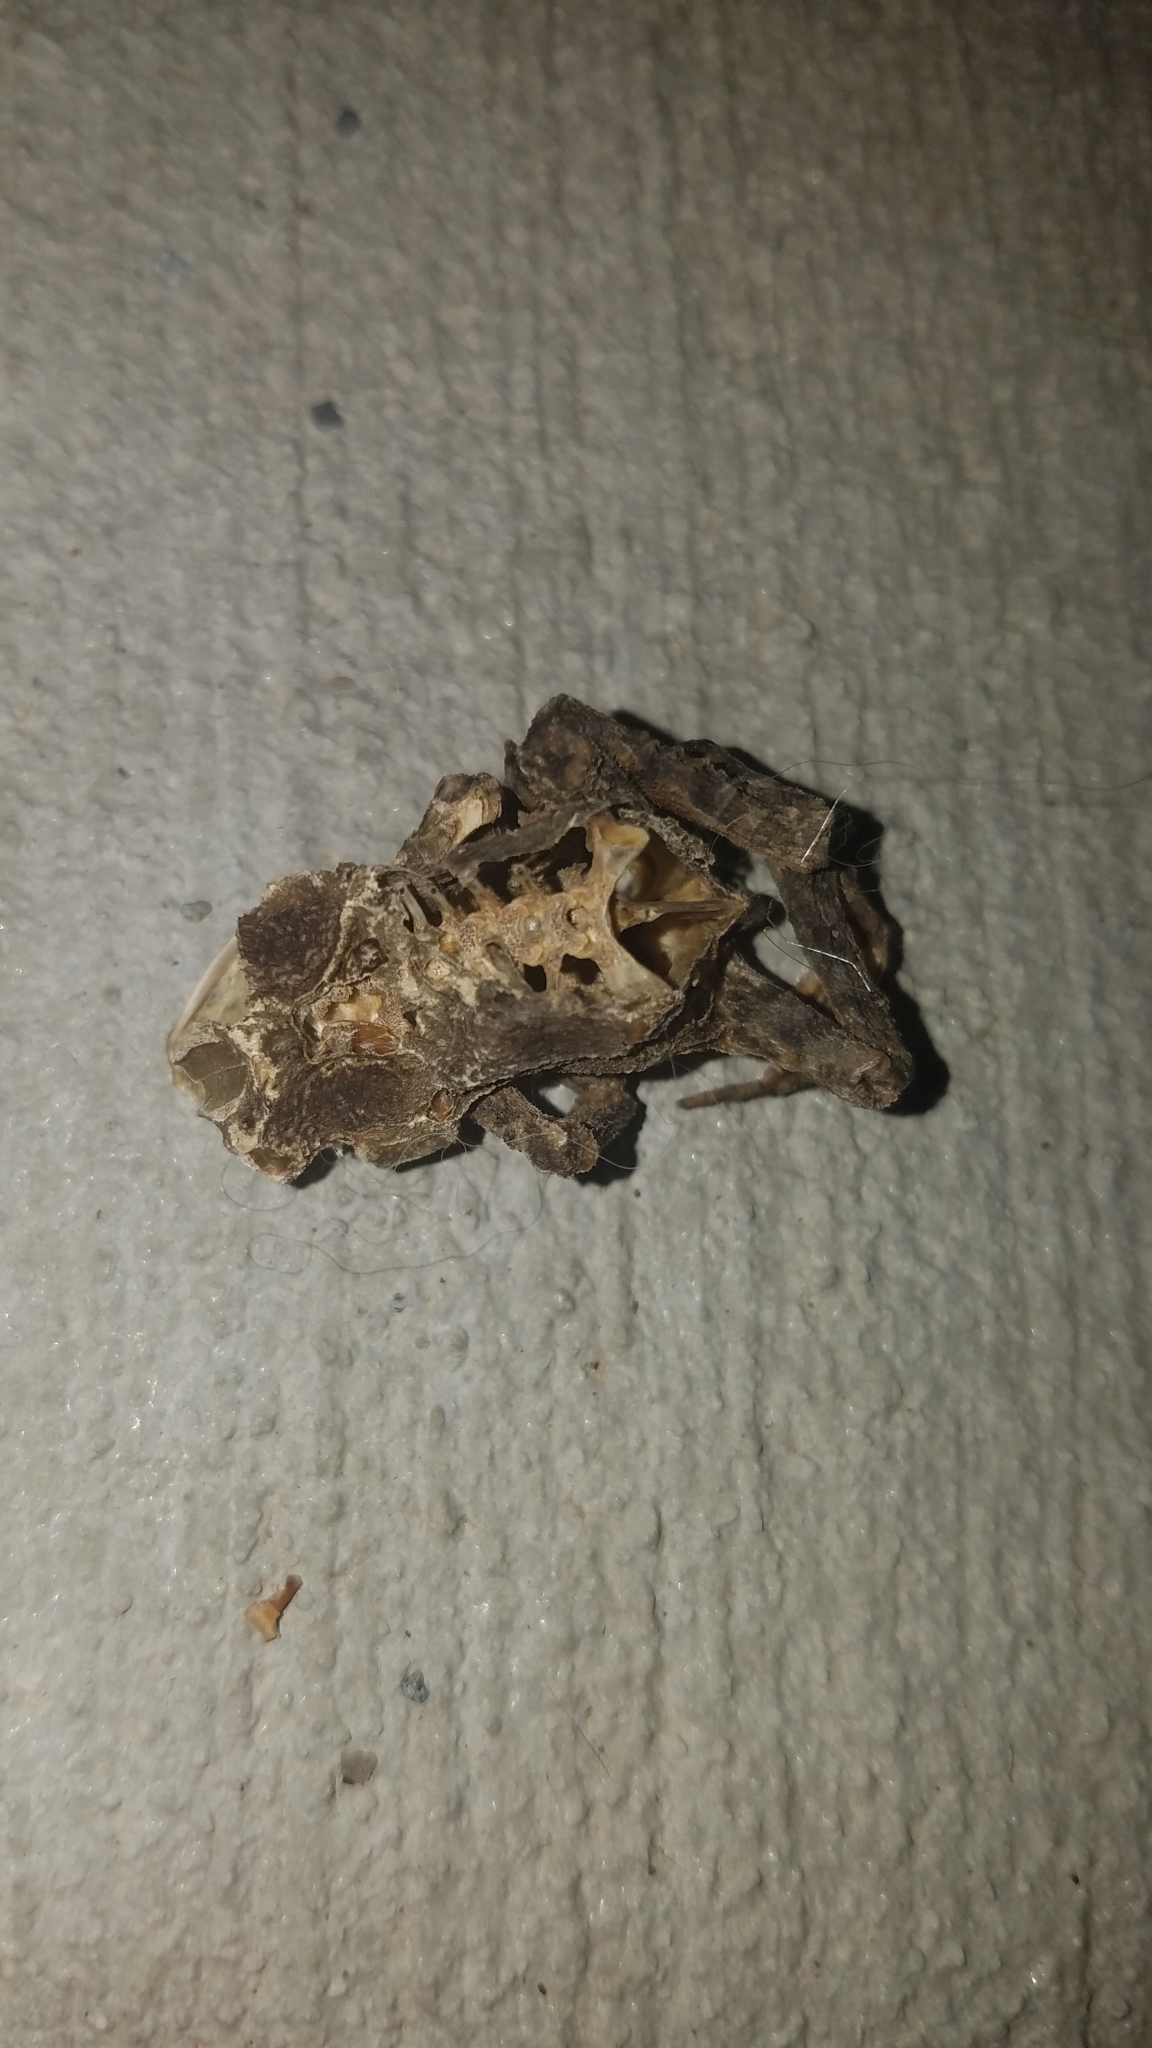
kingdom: Animalia
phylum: Chordata
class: Amphibia
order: Anura
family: Bufonidae
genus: Anaxyrus
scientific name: Anaxyrus americanus
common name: American toad
